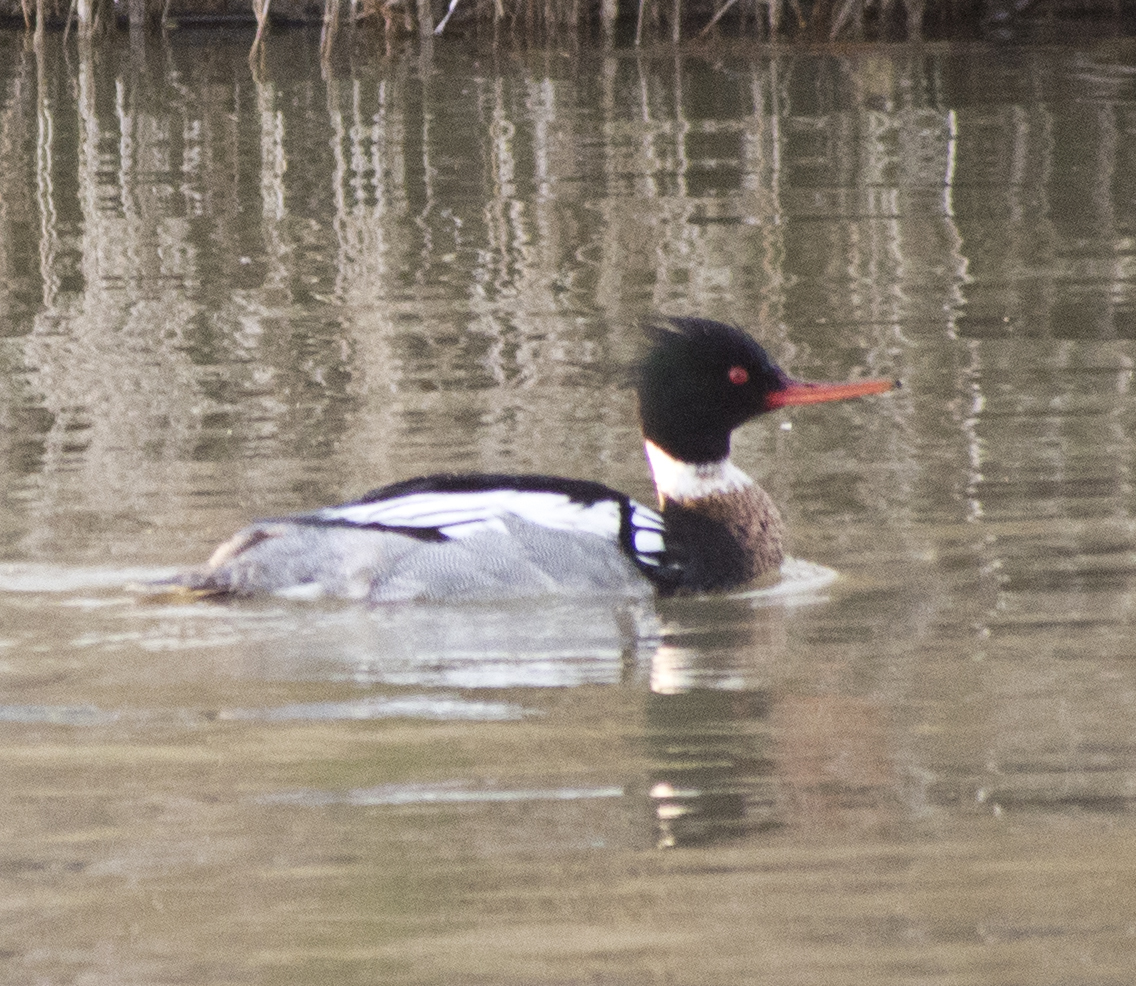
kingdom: Animalia
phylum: Chordata
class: Aves
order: Anseriformes
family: Anatidae
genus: Mergus
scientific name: Mergus serrator
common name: Red-breasted merganser
